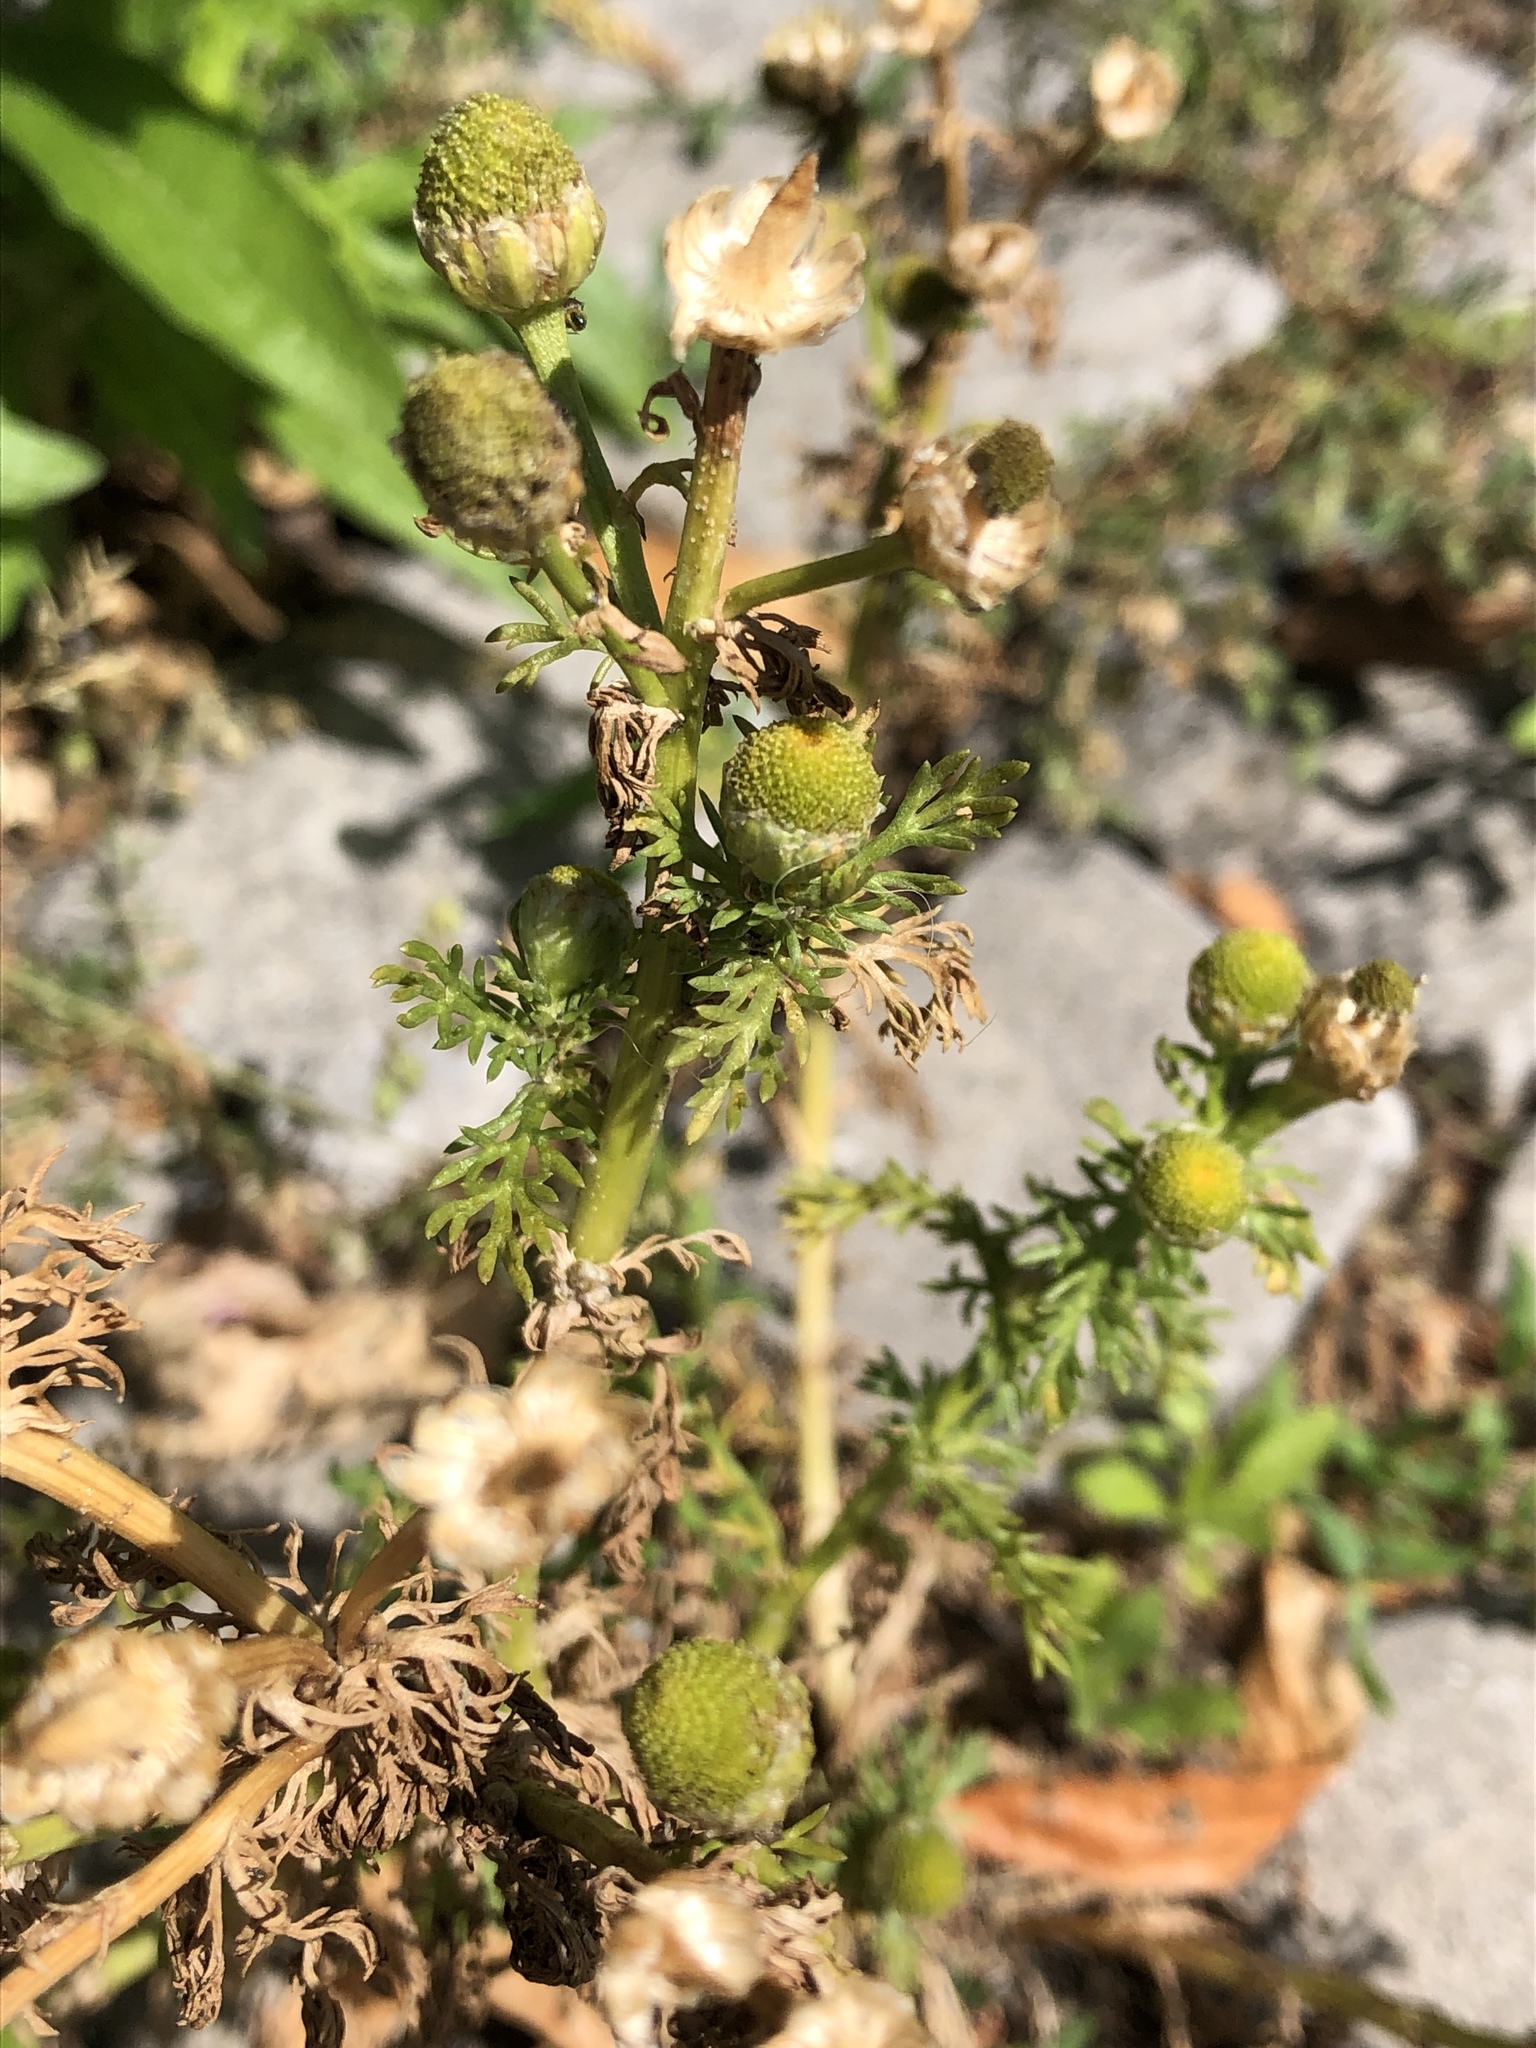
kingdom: Plantae
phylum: Tracheophyta
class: Magnoliopsida
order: Asterales
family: Asteraceae
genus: Matricaria
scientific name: Matricaria discoidea
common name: Disc mayweed
